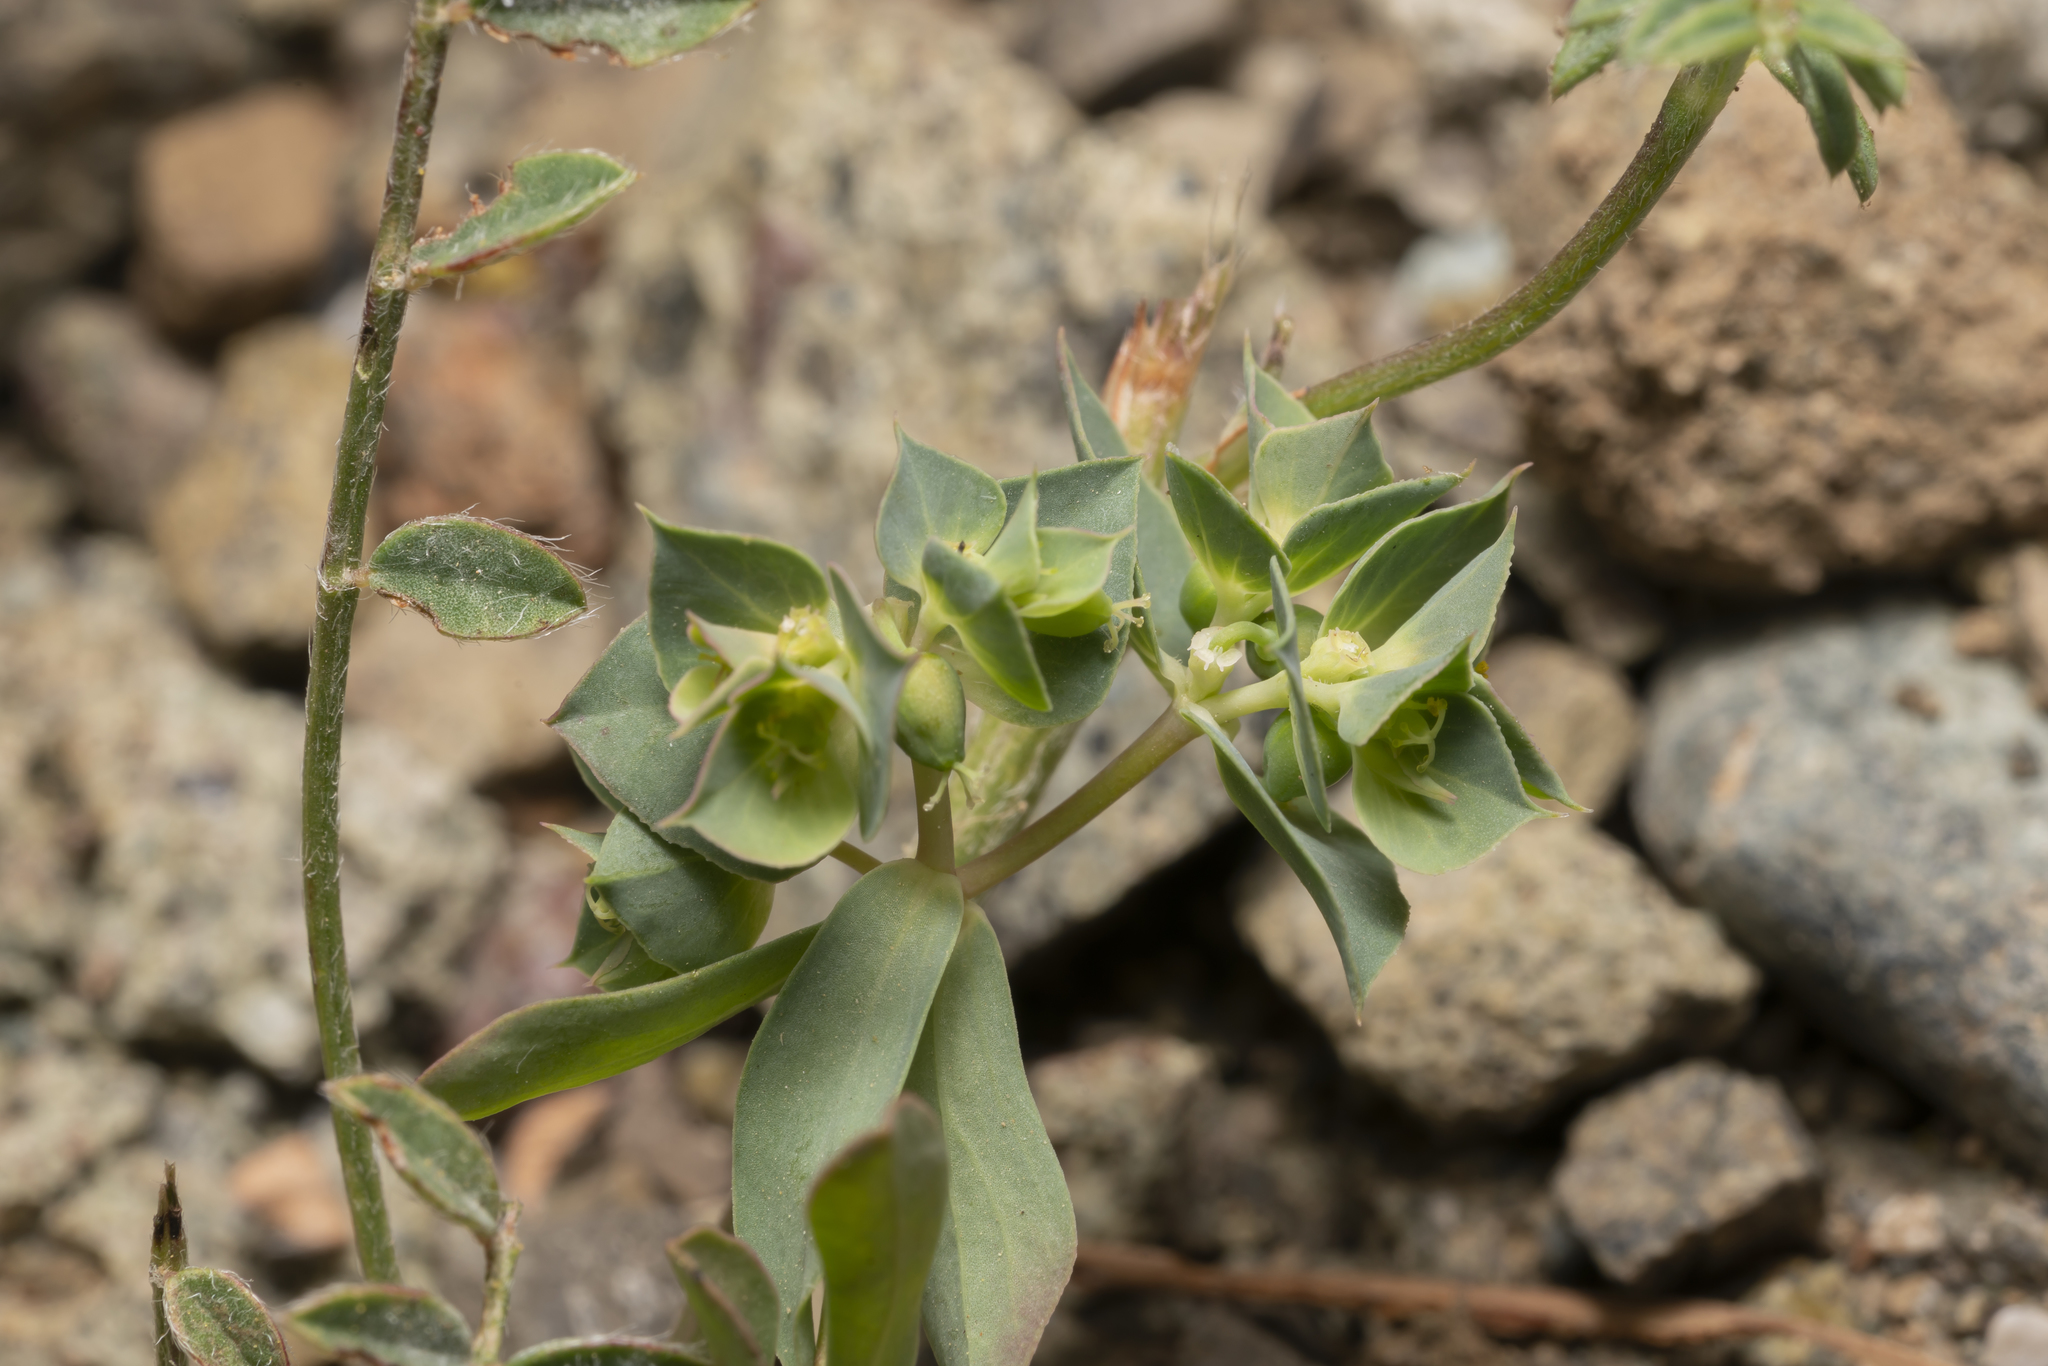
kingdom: Plantae
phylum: Tracheophyta
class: Magnoliopsida
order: Malpighiales
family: Euphorbiaceae
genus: Euphorbia
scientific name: Euphorbia falcata
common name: Sickle spurge
